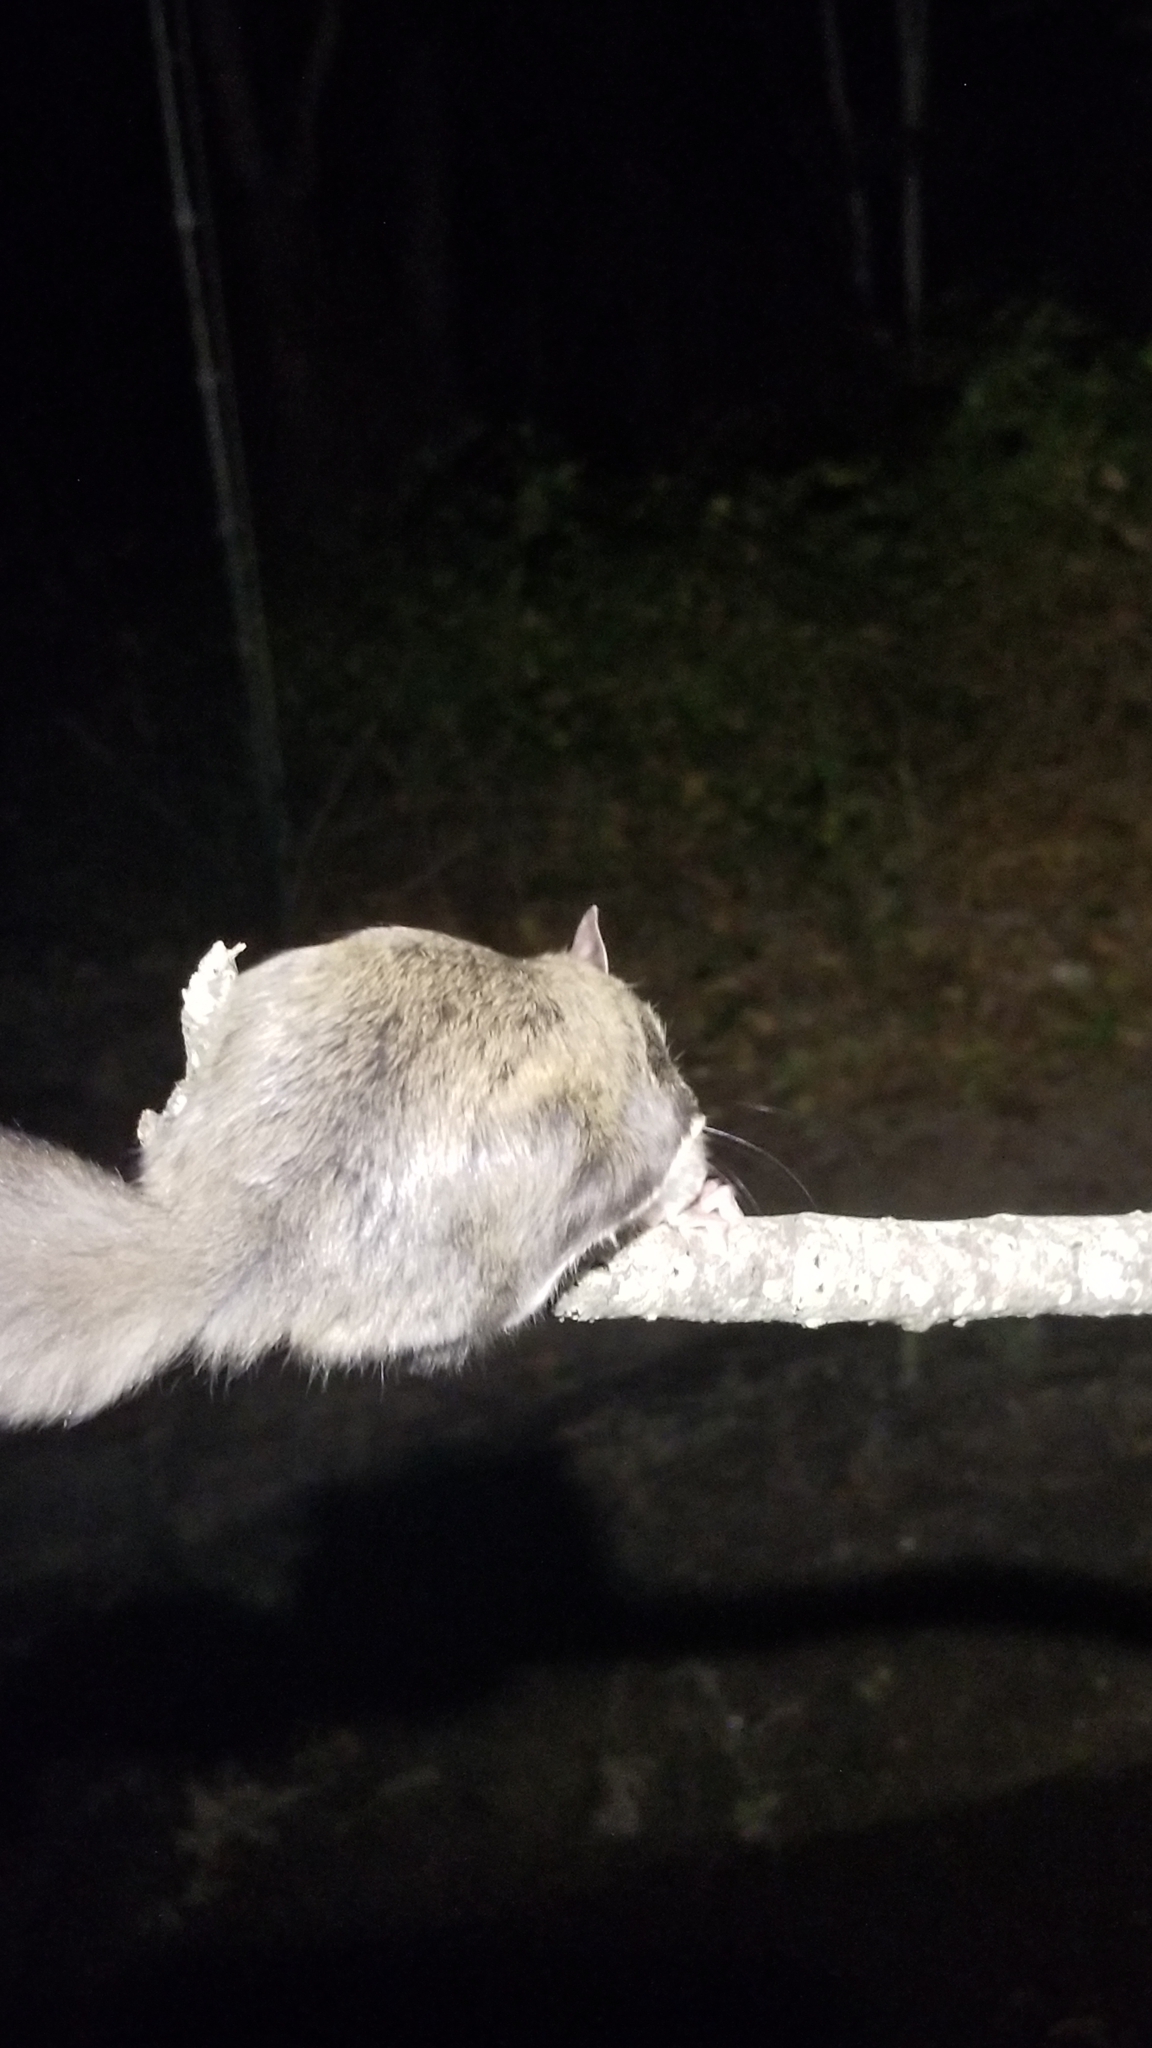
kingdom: Animalia
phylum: Chordata
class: Mammalia
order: Rodentia
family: Sciuridae
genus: Glaucomys
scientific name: Glaucomys volans
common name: Southern flying squirrel
